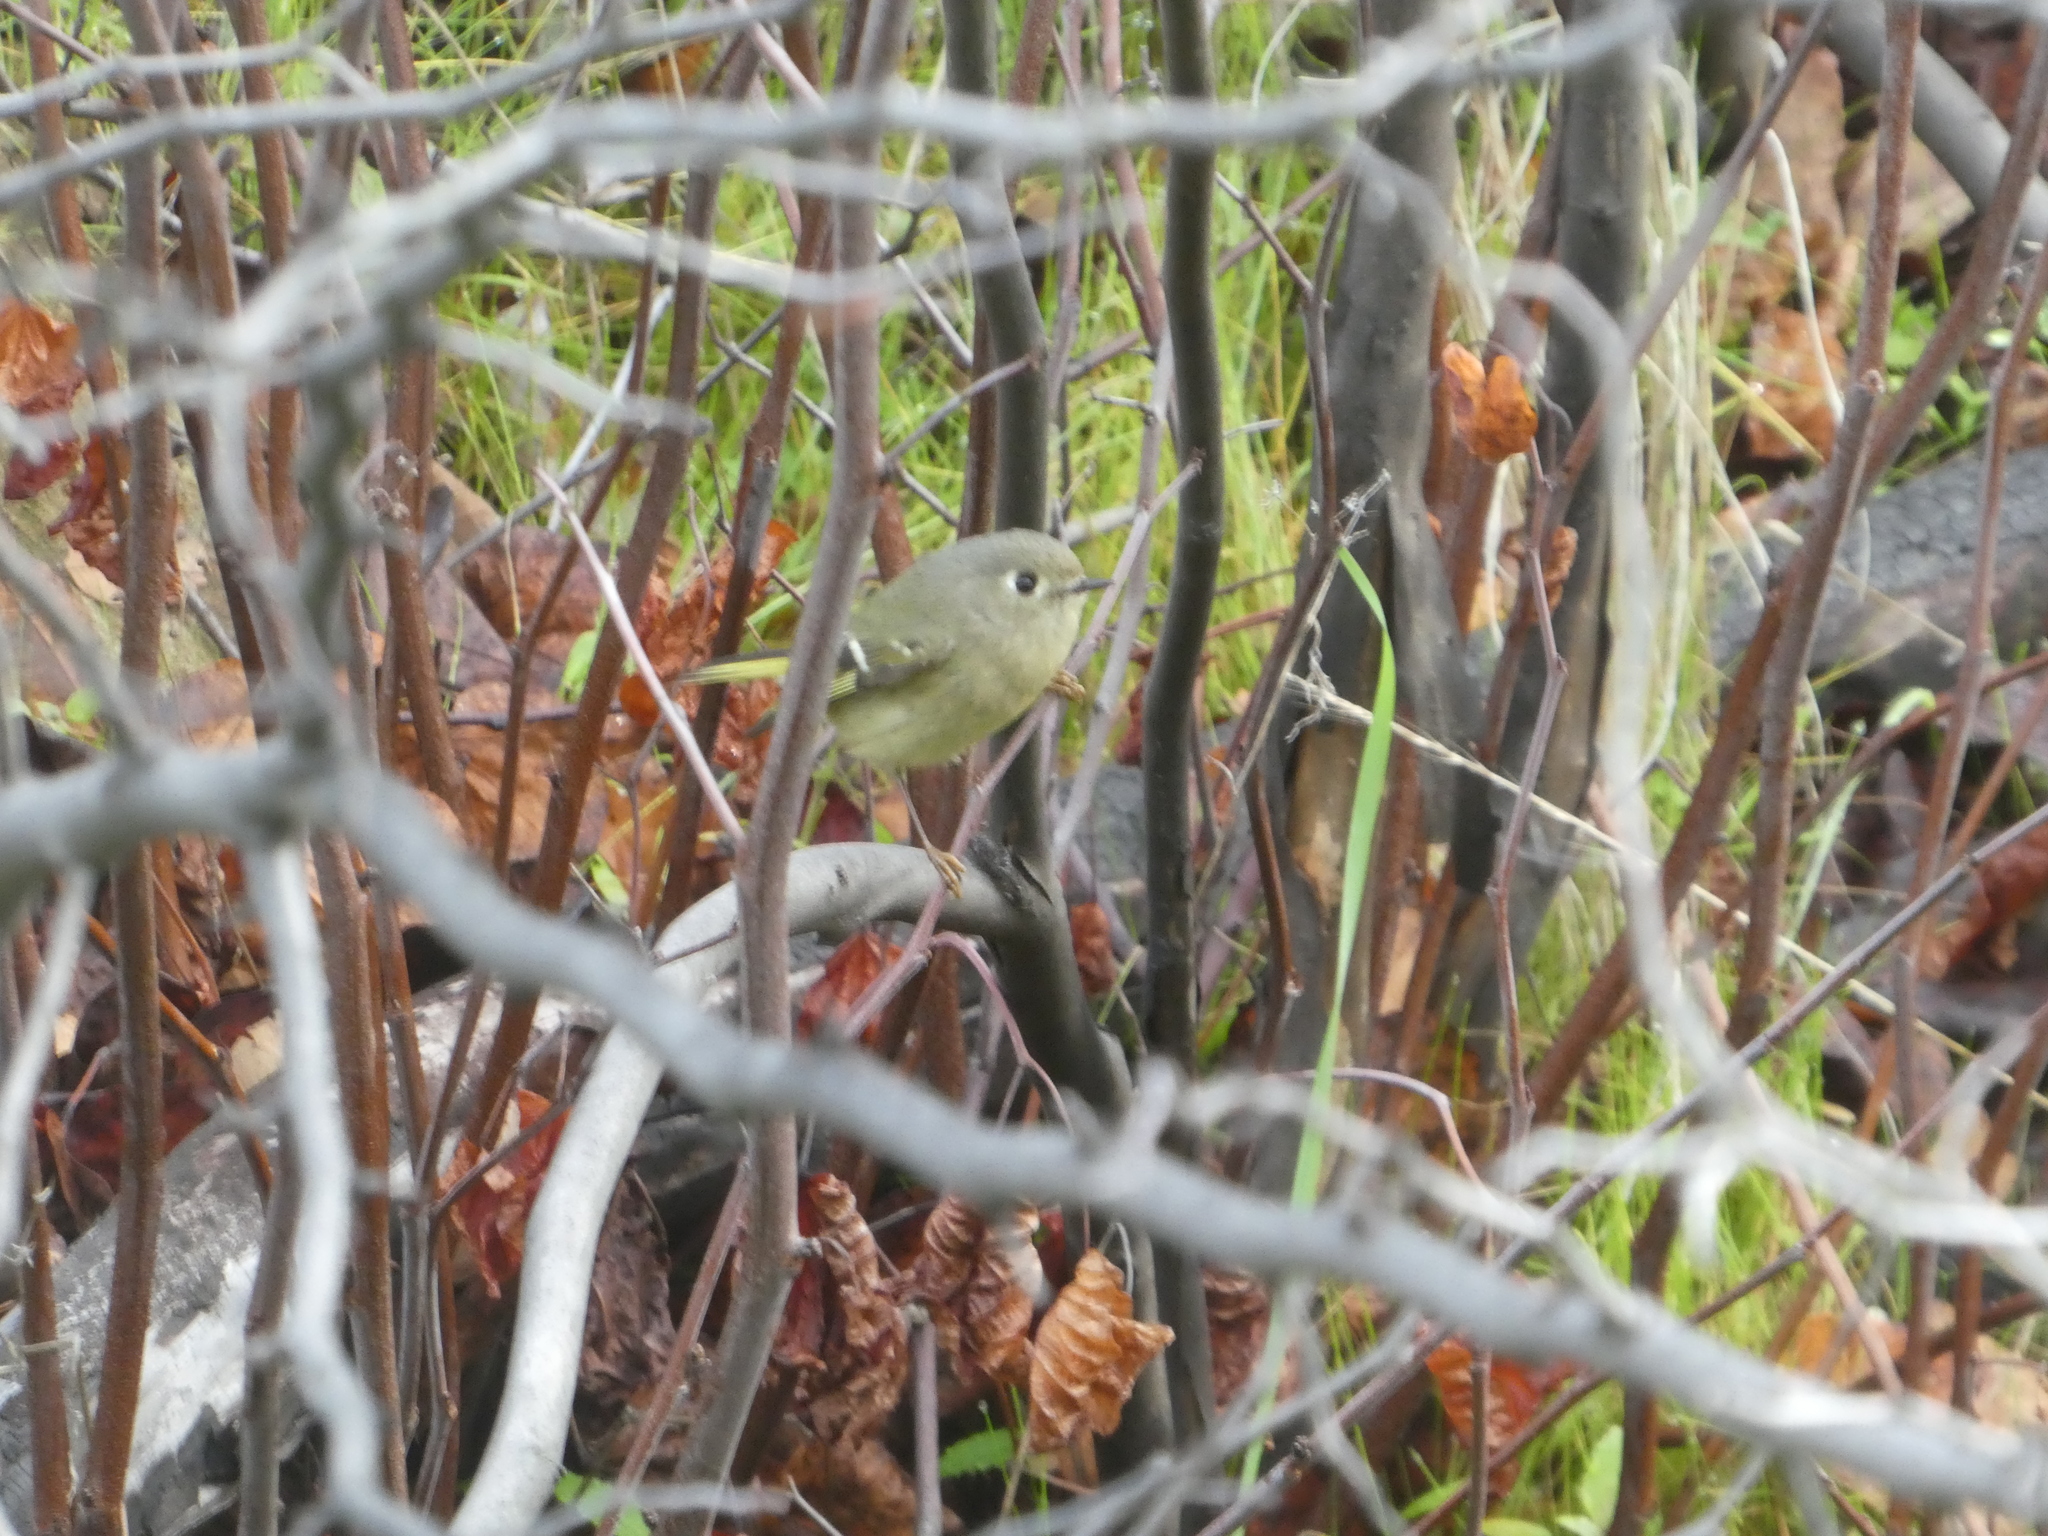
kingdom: Animalia
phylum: Chordata
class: Aves
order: Passeriformes
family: Regulidae
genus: Regulus
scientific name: Regulus calendula
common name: Ruby-crowned kinglet
